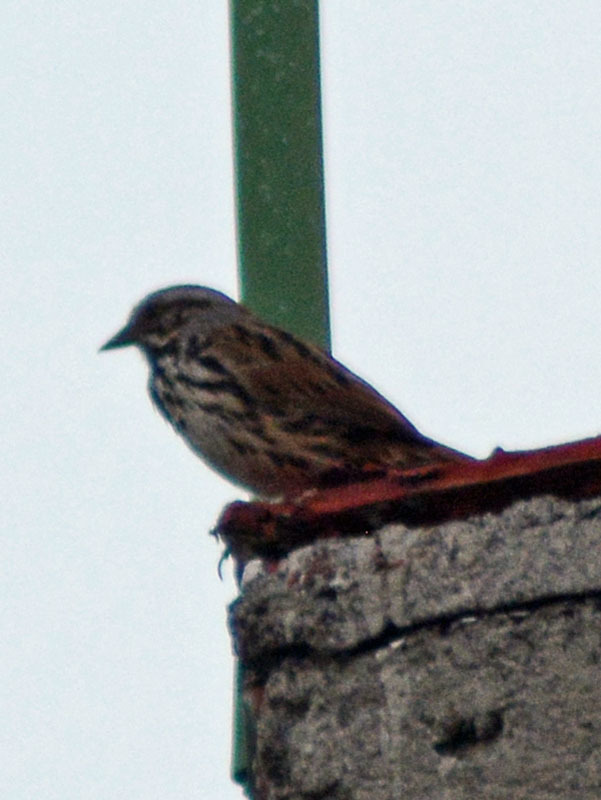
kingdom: Animalia
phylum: Chordata
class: Aves
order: Passeriformes
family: Passerellidae
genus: Melospiza
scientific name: Melospiza melodia
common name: Song sparrow
